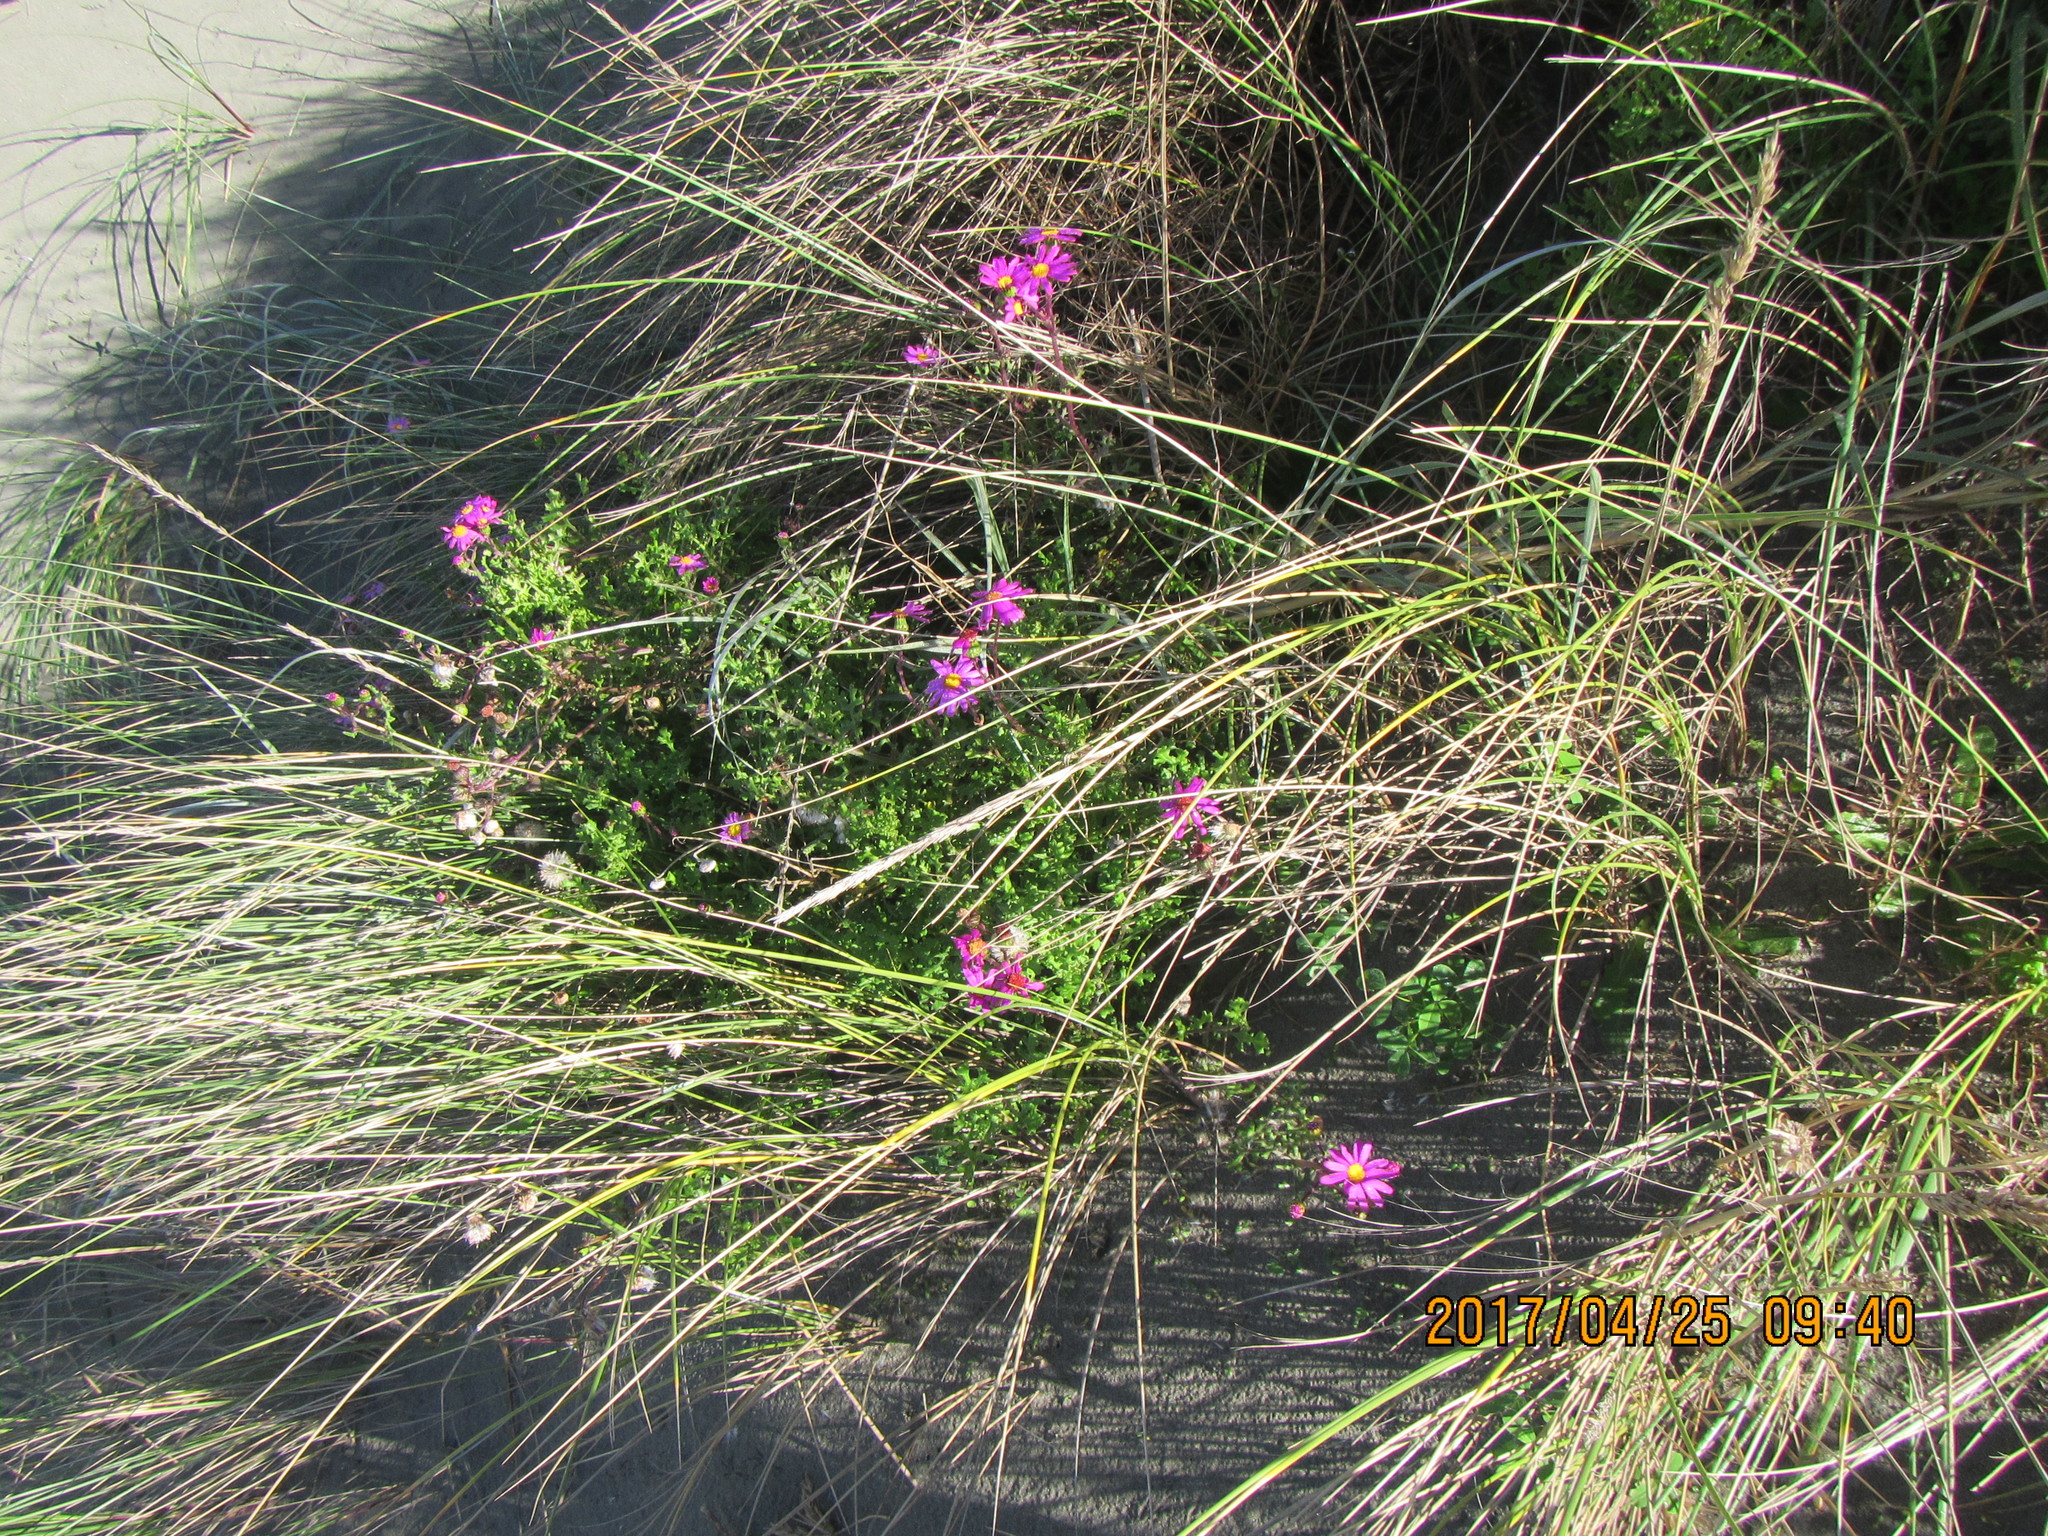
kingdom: Plantae
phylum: Tracheophyta
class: Magnoliopsida
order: Asterales
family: Asteraceae
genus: Senecio
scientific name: Senecio elegans
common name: Purple groundsel
